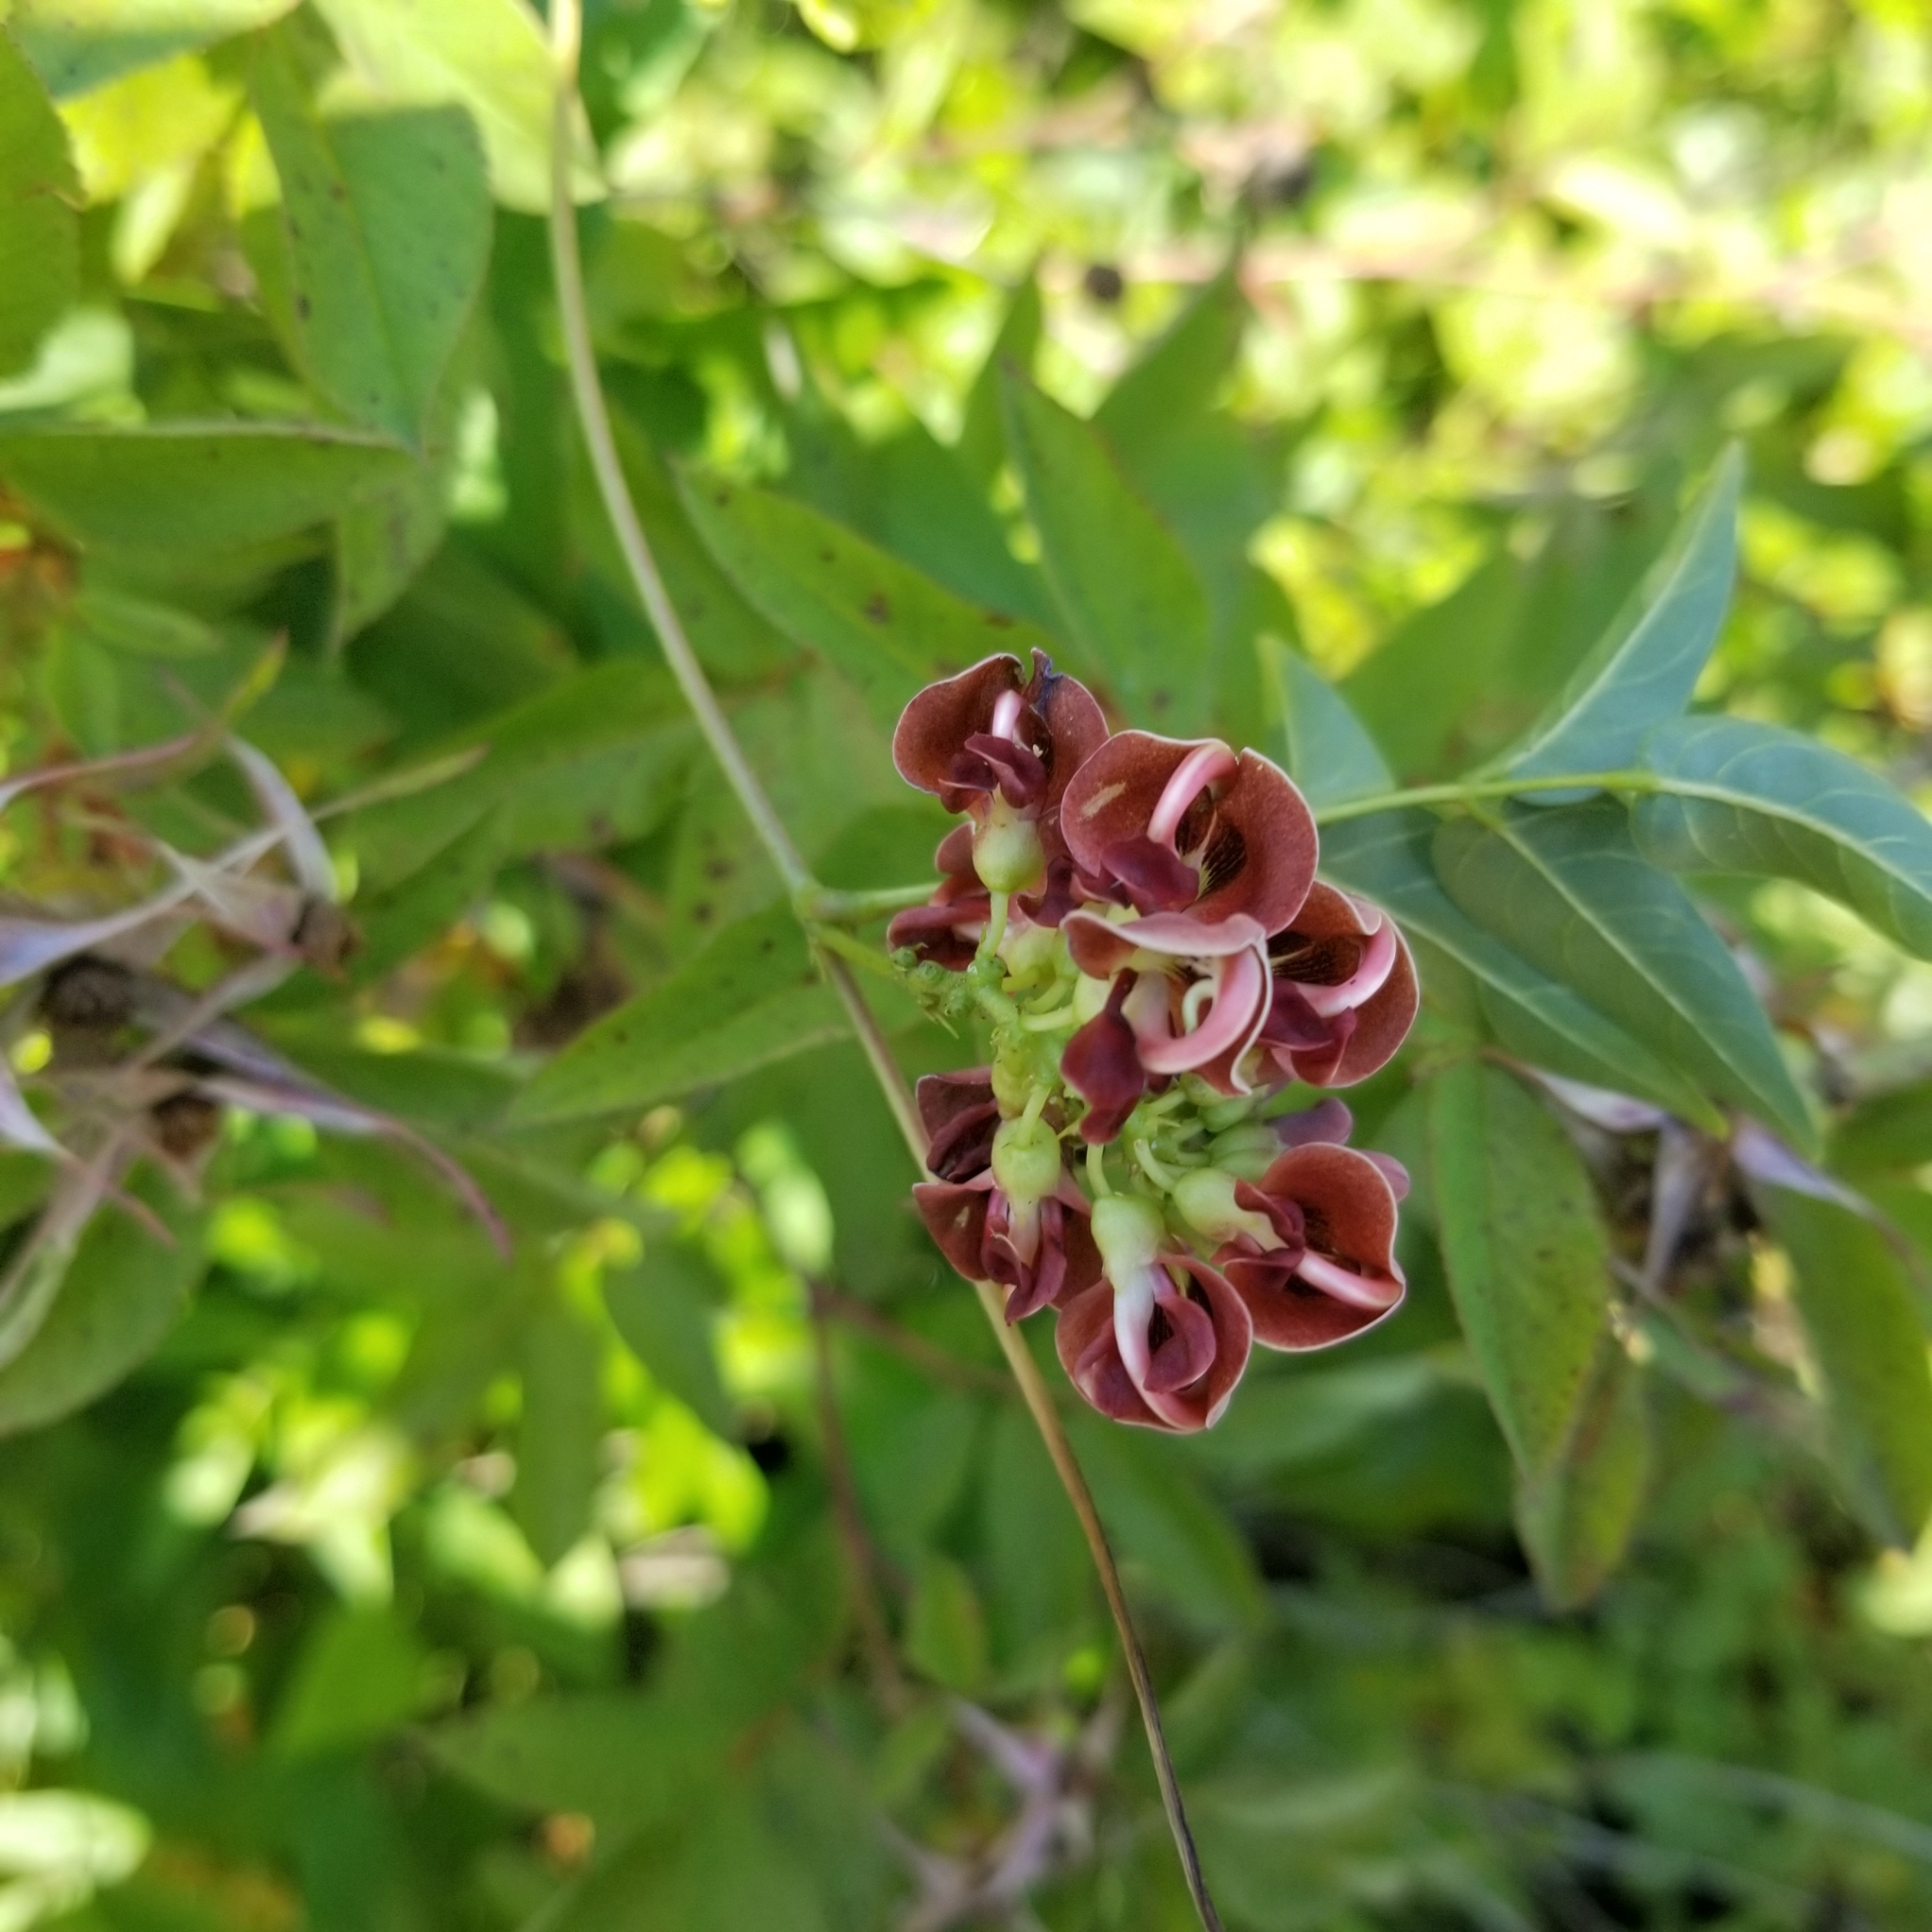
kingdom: Plantae
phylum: Tracheophyta
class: Magnoliopsida
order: Fabales
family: Fabaceae
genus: Apios
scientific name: Apios americana
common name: American potato-bean
